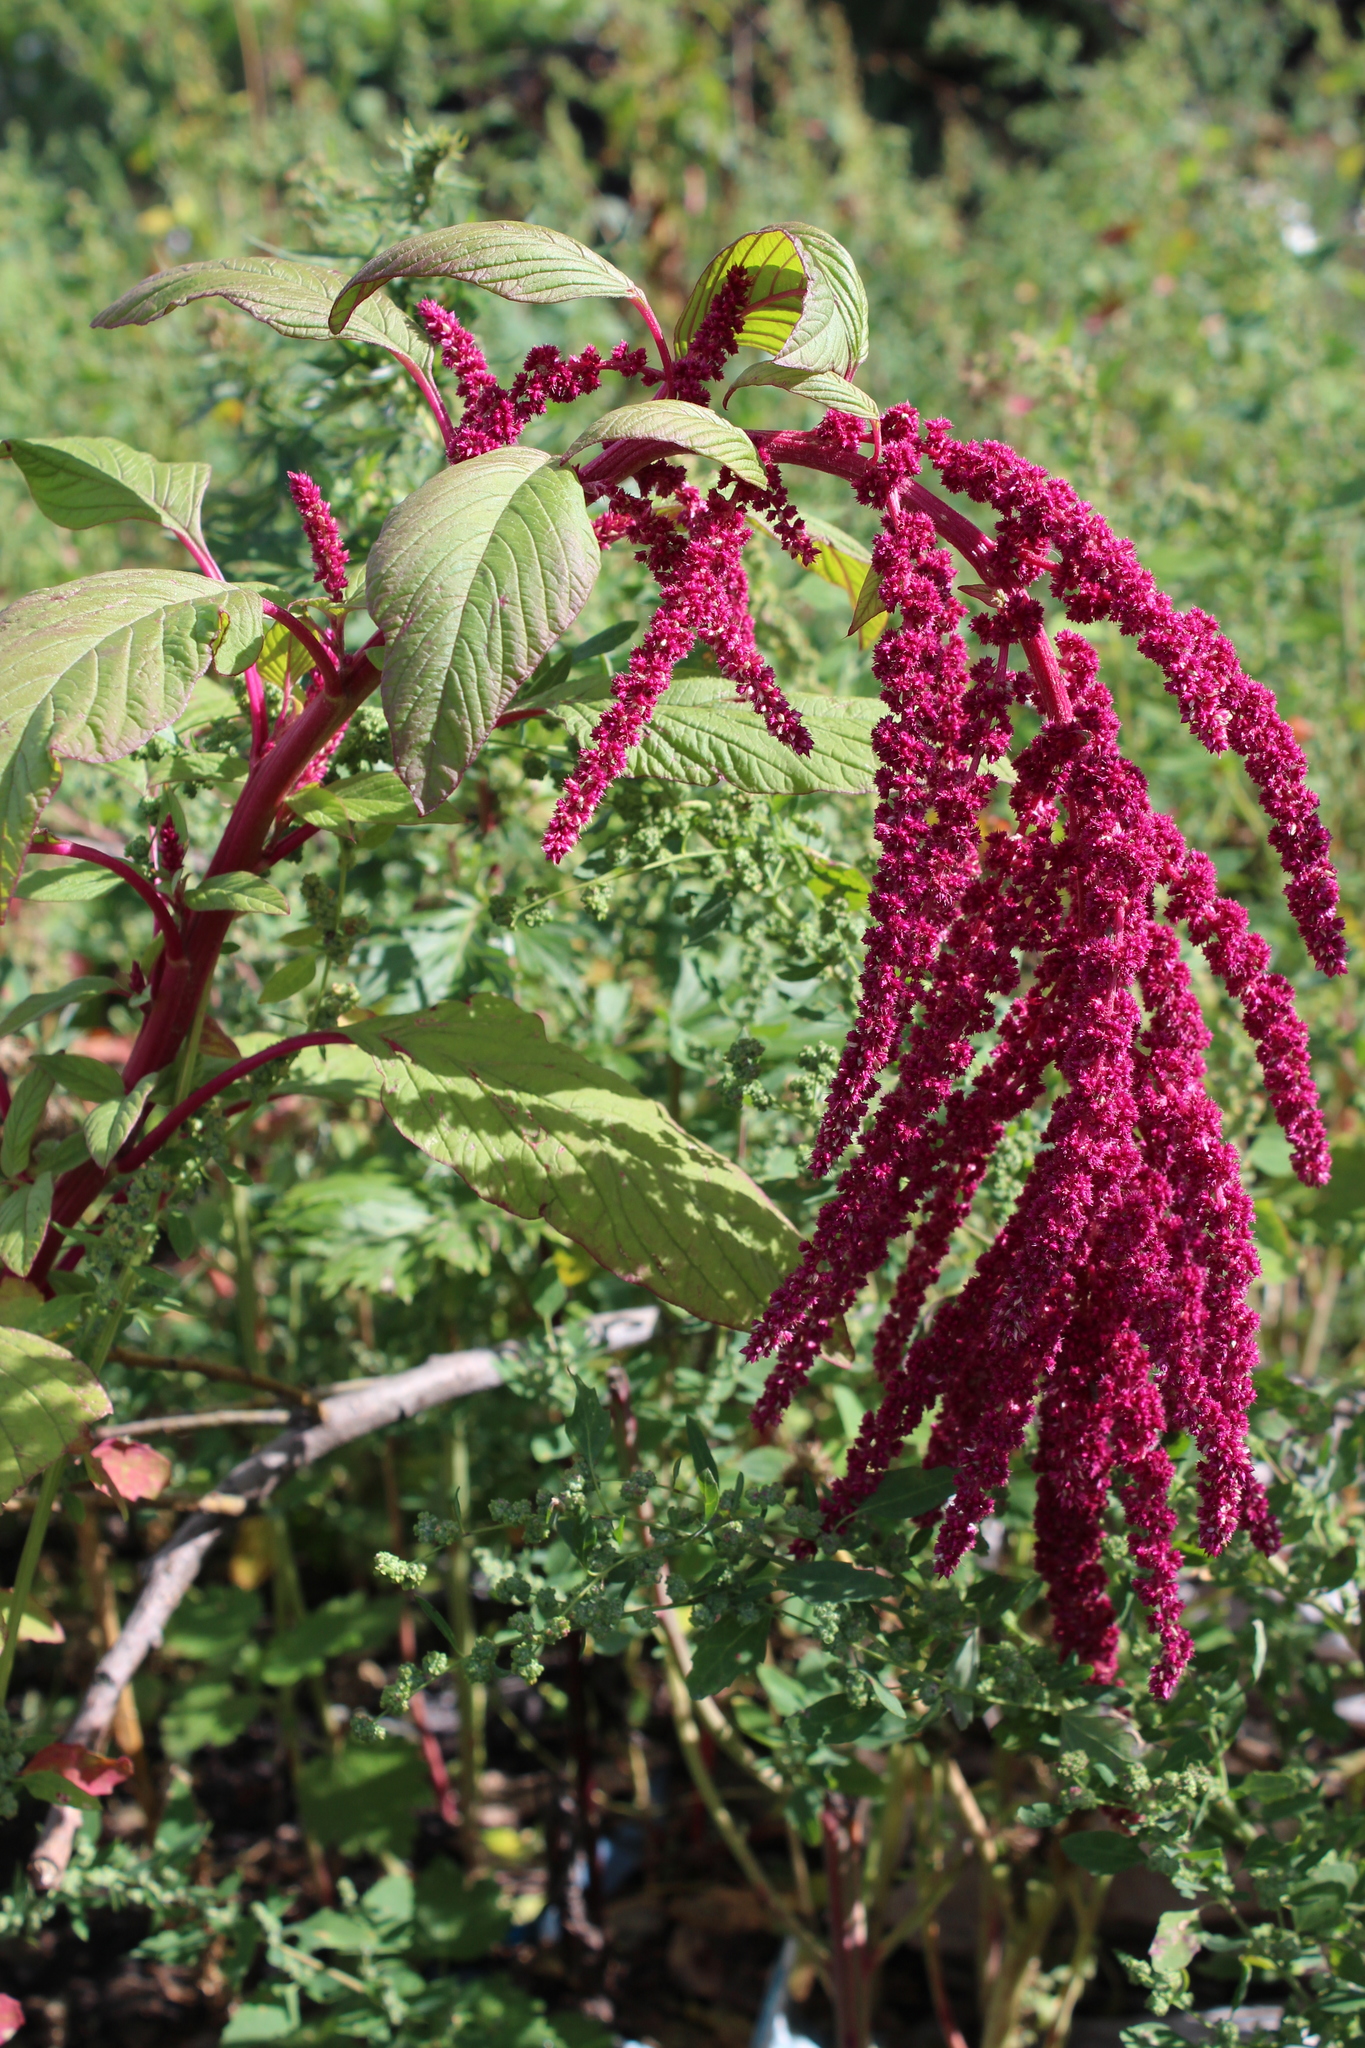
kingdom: Plantae
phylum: Tracheophyta
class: Magnoliopsida
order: Caryophyllales
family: Amaranthaceae
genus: Amaranthus
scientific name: Amaranthus caudatus
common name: Love-lies-bleeding
